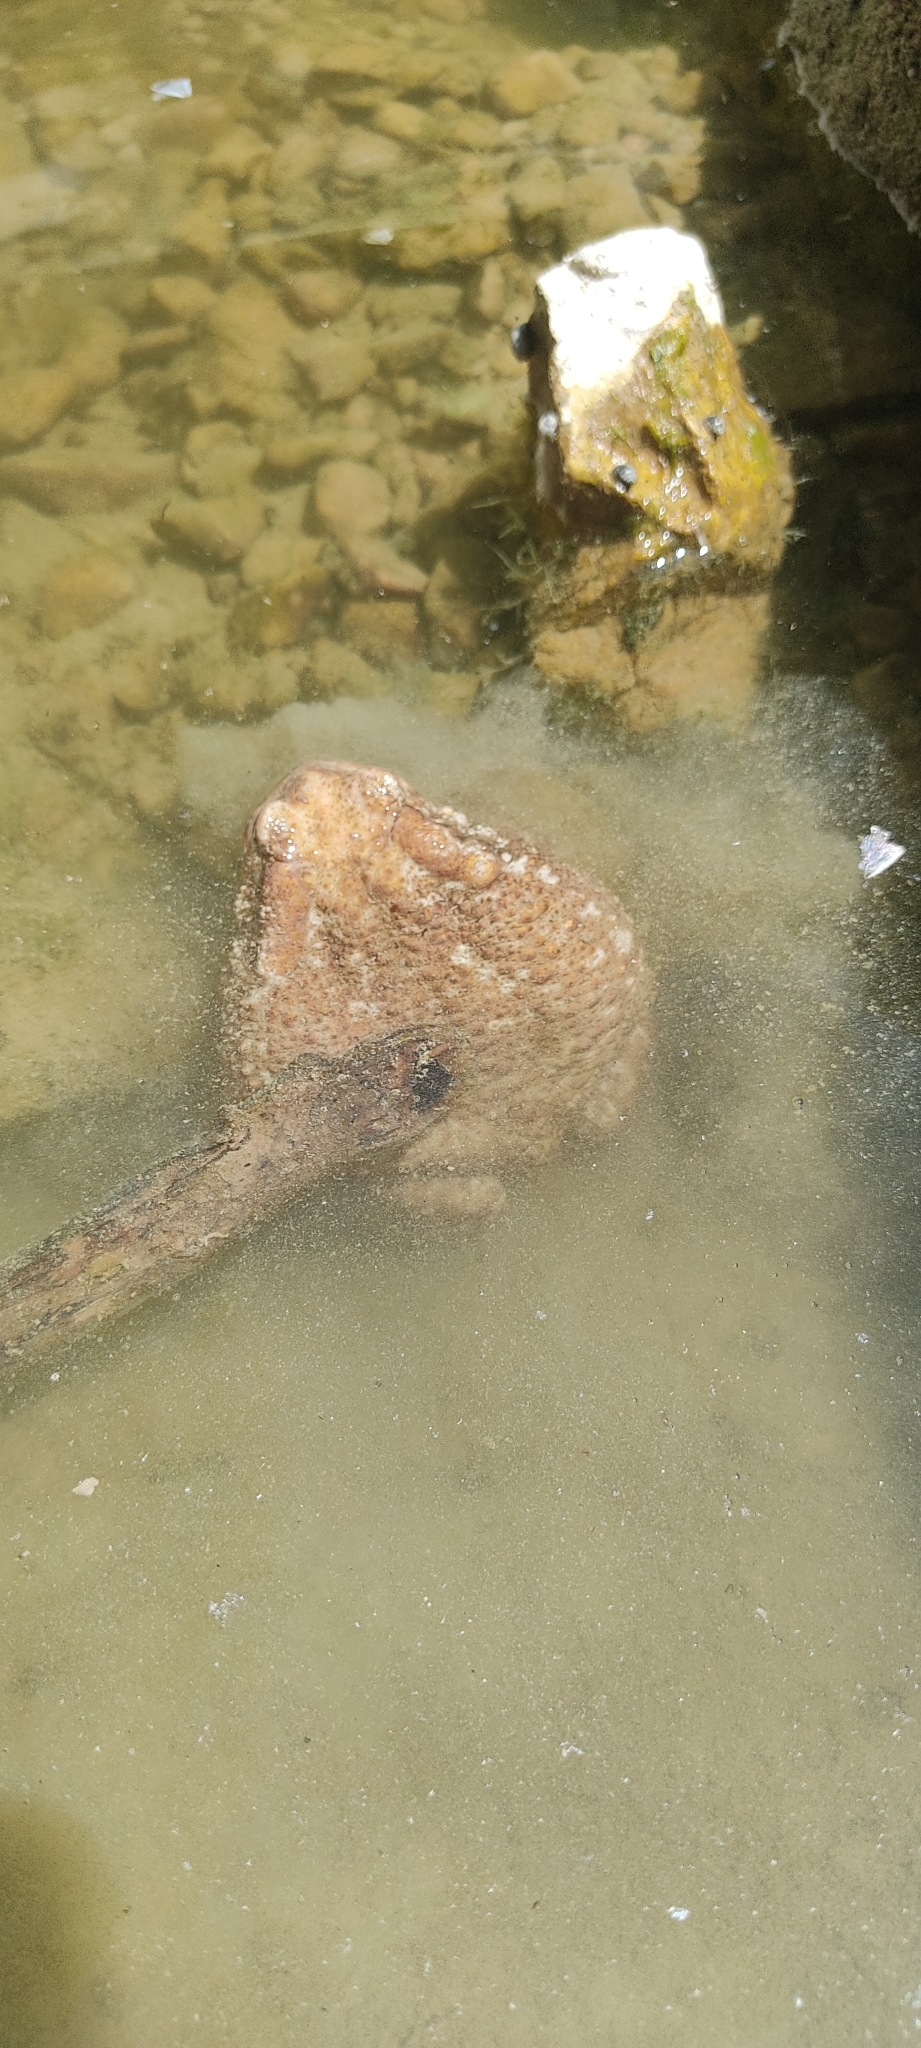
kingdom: Animalia
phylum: Chordata
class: Amphibia
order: Anura
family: Bufonidae
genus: Bufo
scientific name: Bufo spinosus
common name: Western common toad
